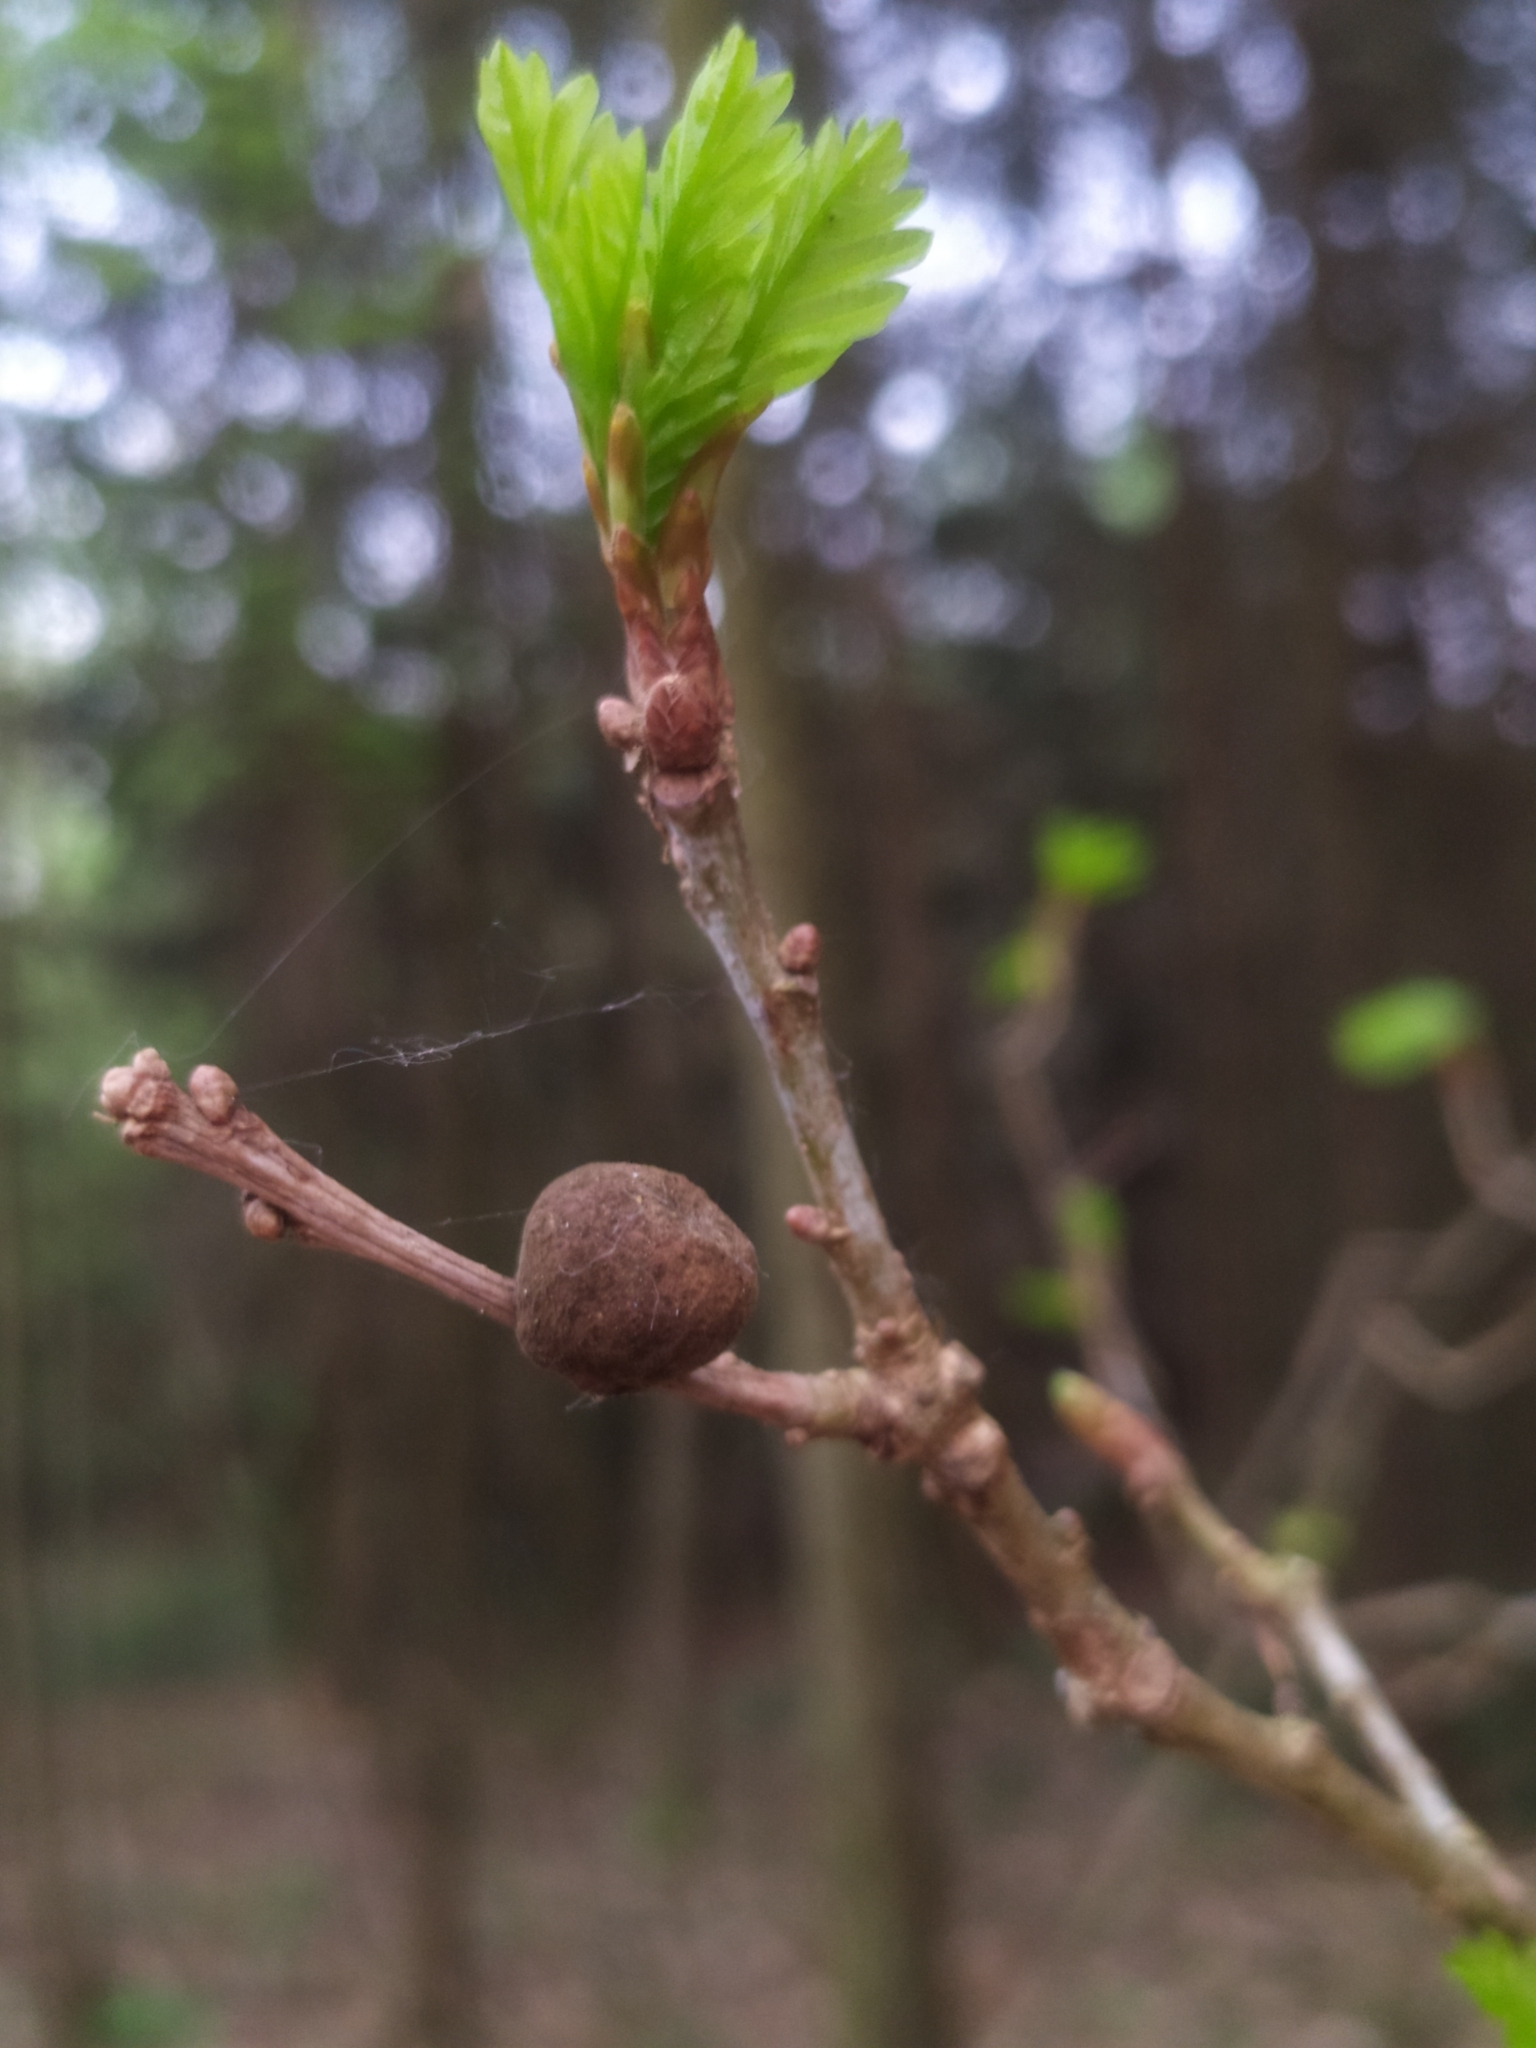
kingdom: Animalia
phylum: Arthropoda
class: Insecta
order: Hymenoptera
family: Cynipidae
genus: Andricus
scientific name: Andricus glutinosus
